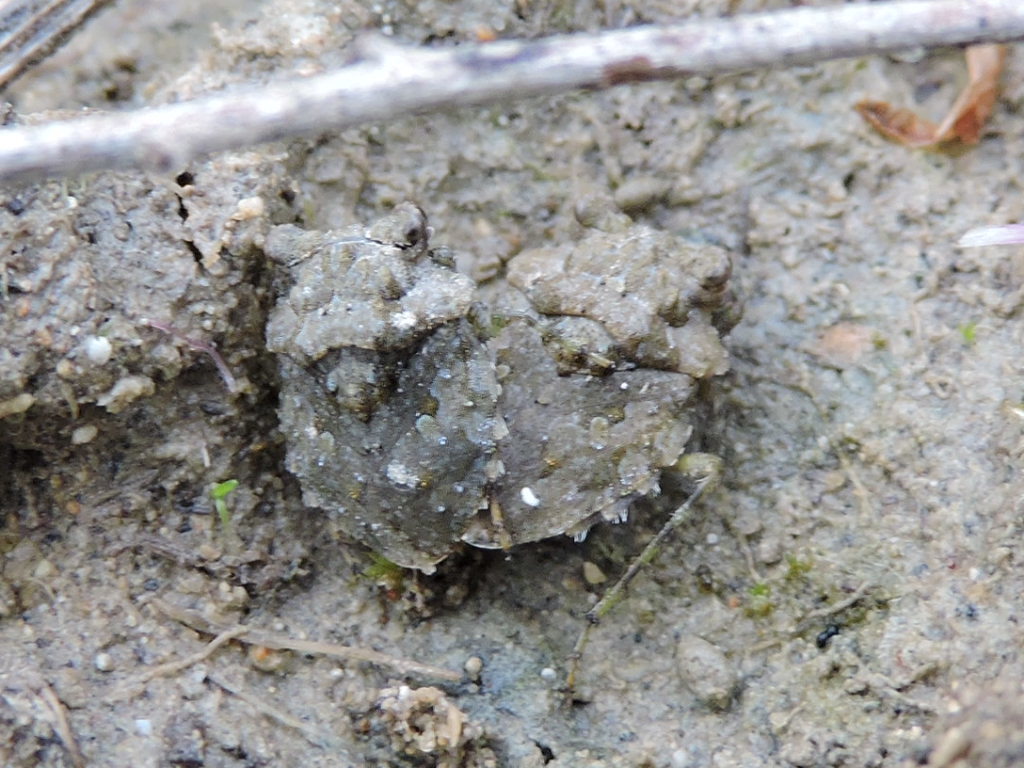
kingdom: Animalia
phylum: Arthropoda
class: Insecta
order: Hemiptera
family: Gelastocoridae
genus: Gelastocoris
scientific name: Gelastocoris oculatus
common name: Toad bug
